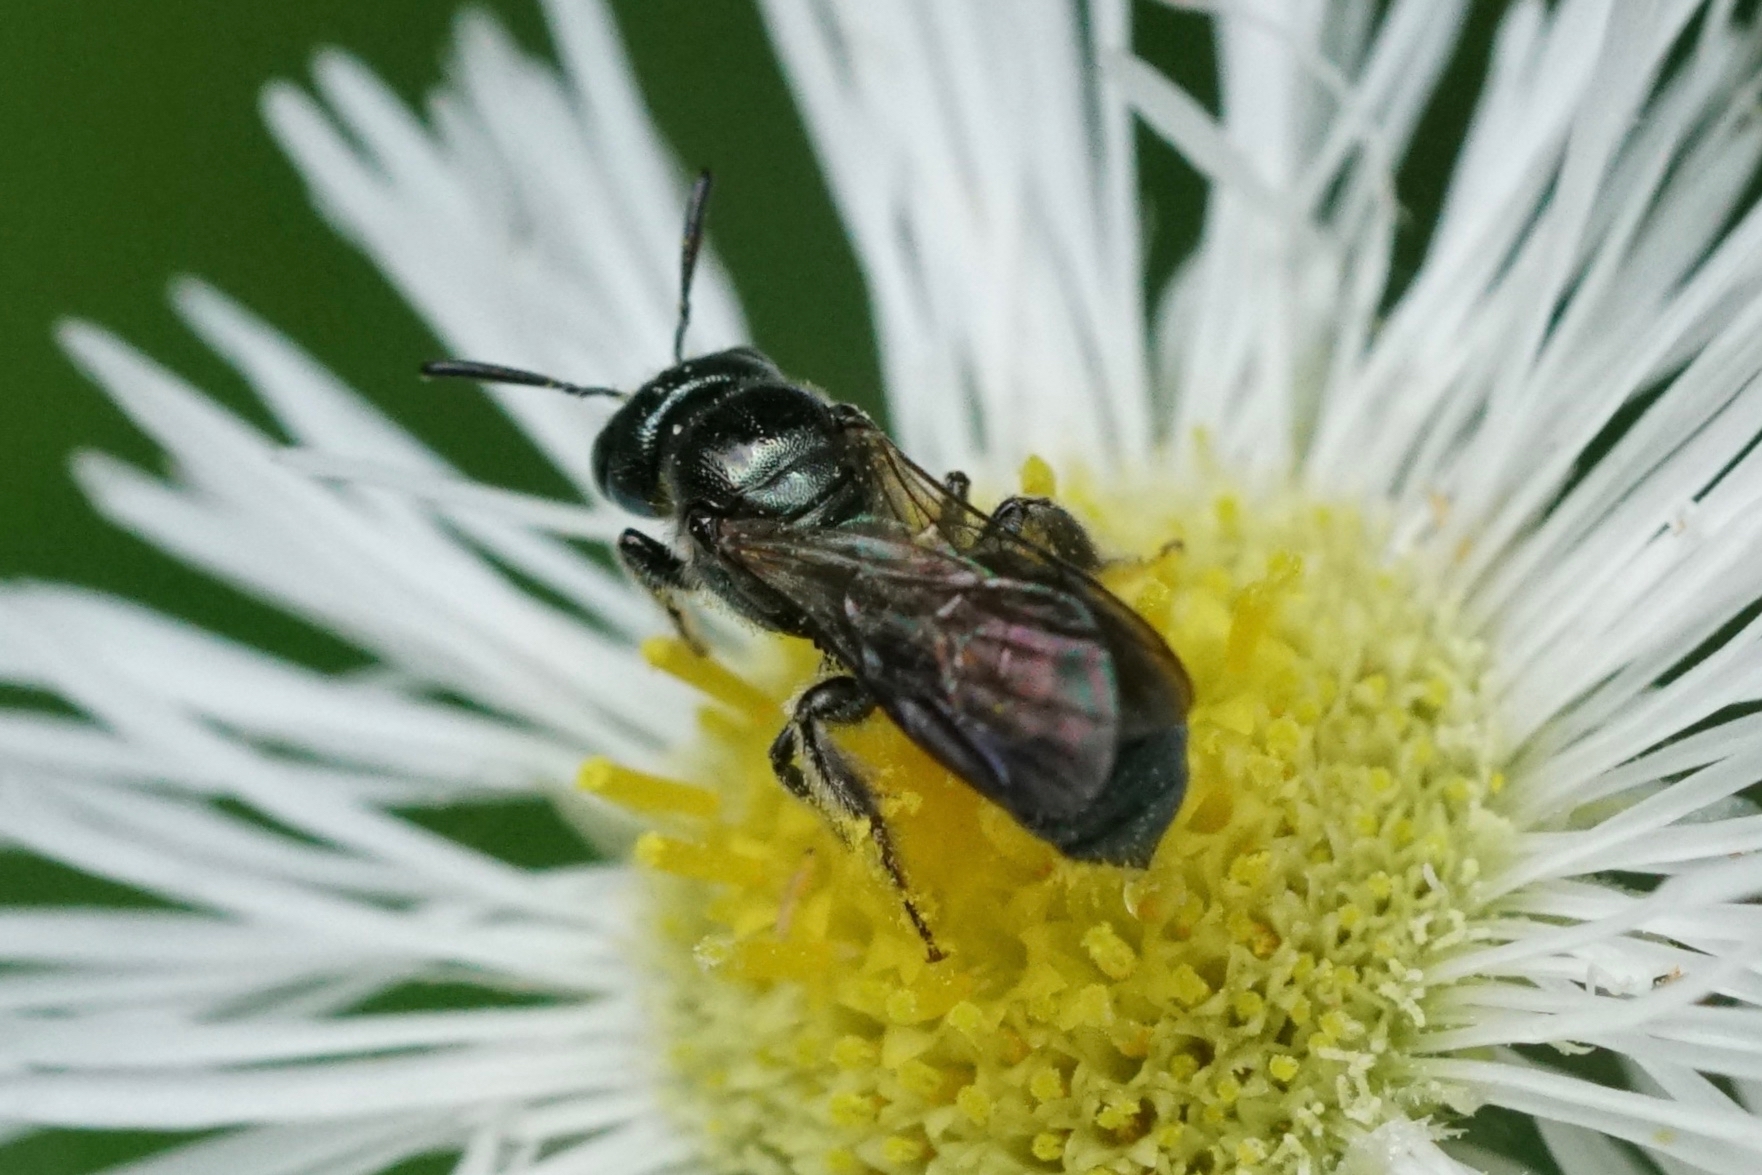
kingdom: Animalia
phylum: Arthropoda
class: Insecta
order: Hymenoptera
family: Apidae
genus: Zadontomerus
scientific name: Zadontomerus
